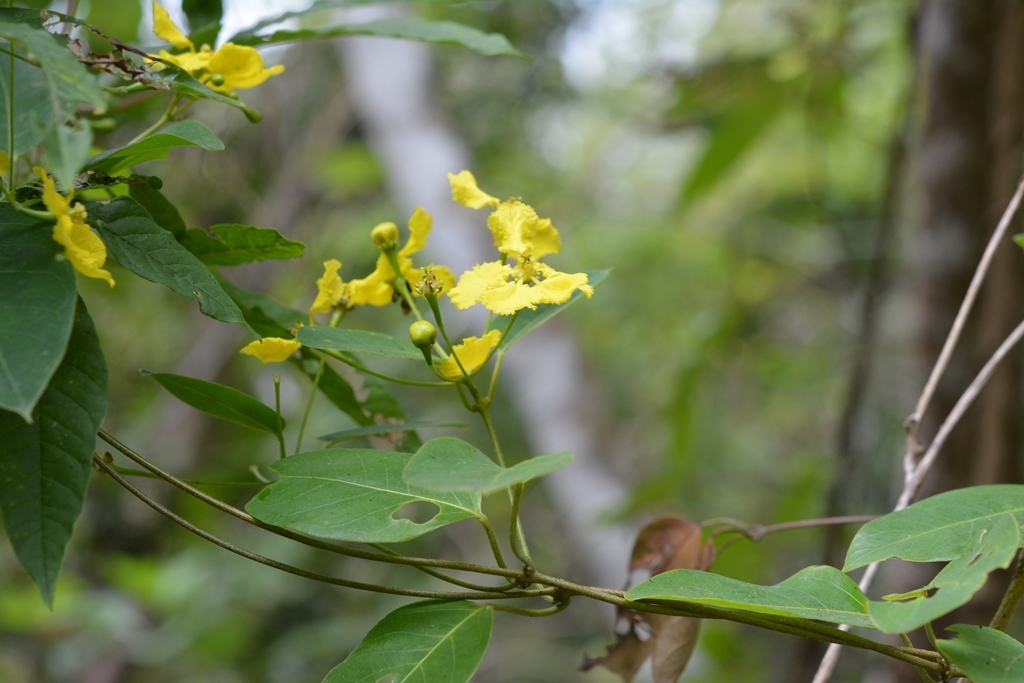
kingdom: Plantae
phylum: Tracheophyta
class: Magnoliopsida
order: Malpighiales
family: Malpighiaceae
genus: Stigmaphyllon
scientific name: Stigmaphyllon ellipticum
